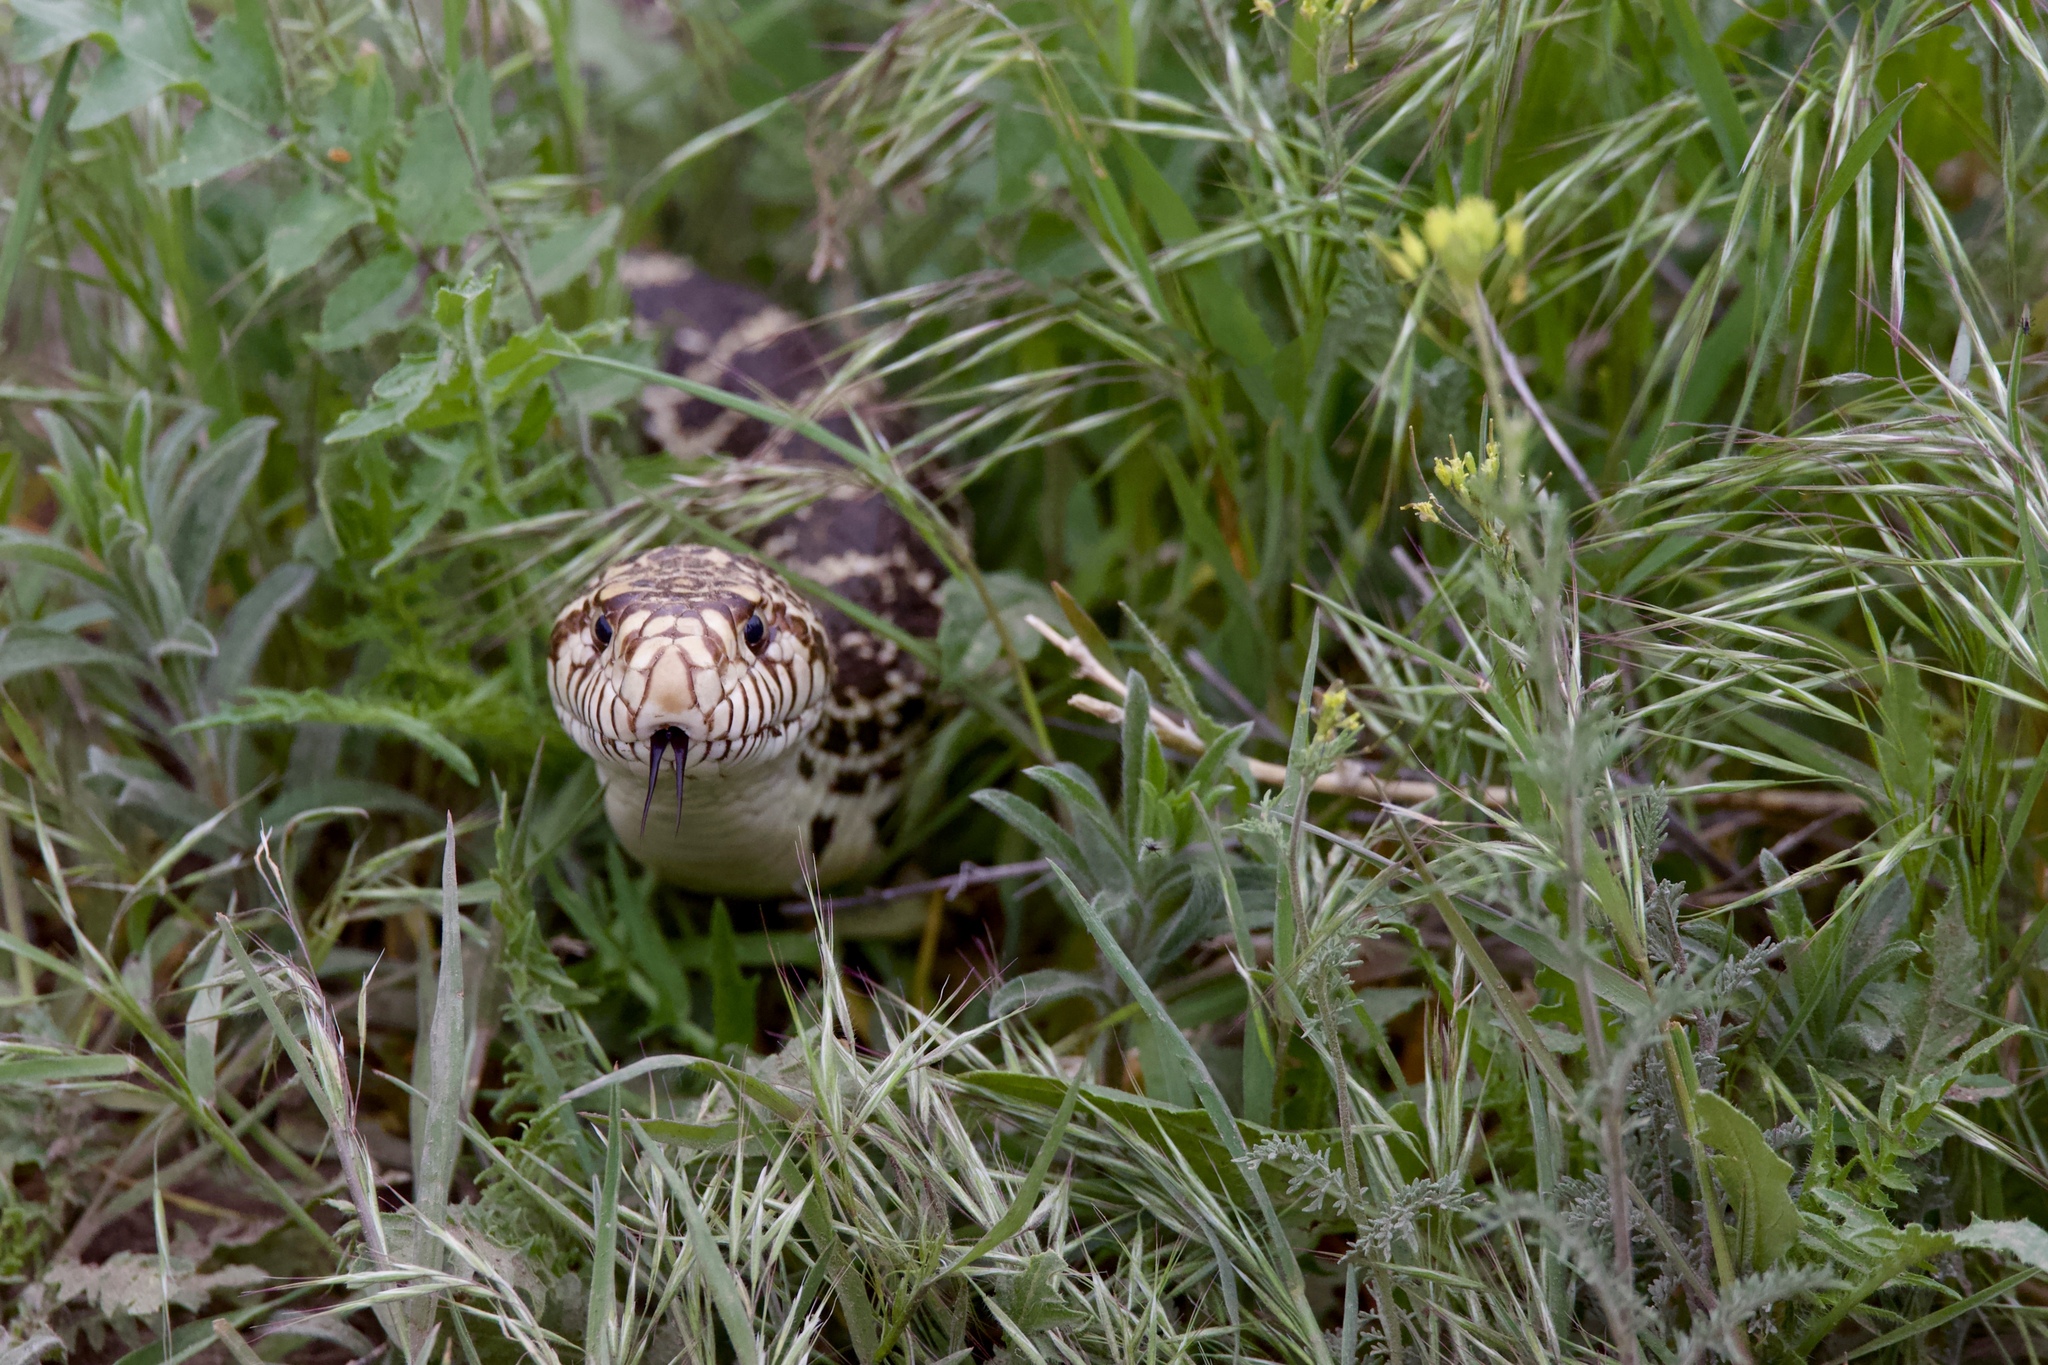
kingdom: Animalia
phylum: Chordata
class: Squamata
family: Colubridae
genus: Pituophis
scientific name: Pituophis catenifer
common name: Gopher snake
